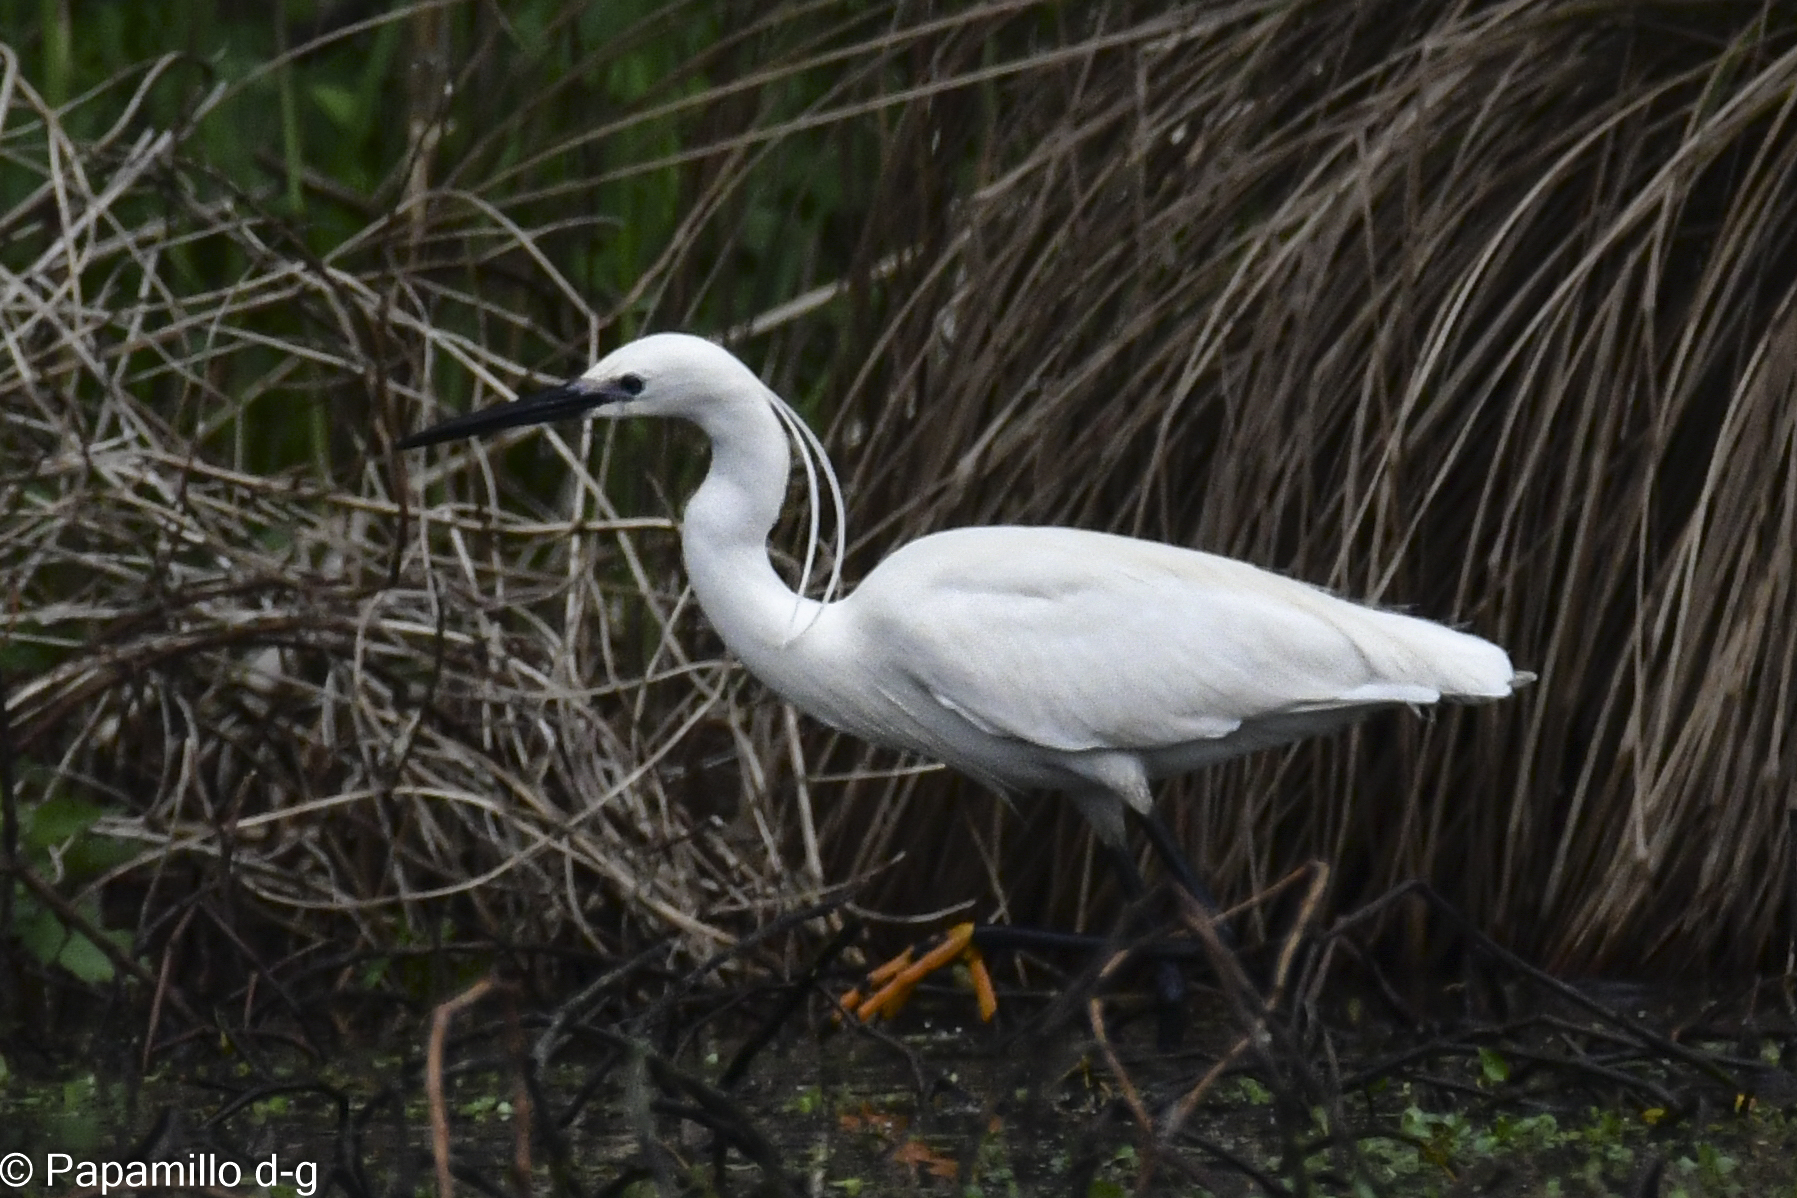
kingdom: Animalia
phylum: Chordata
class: Aves
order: Pelecaniformes
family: Ardeidae
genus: Egretta
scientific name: Egretta garzetta
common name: Little egret
